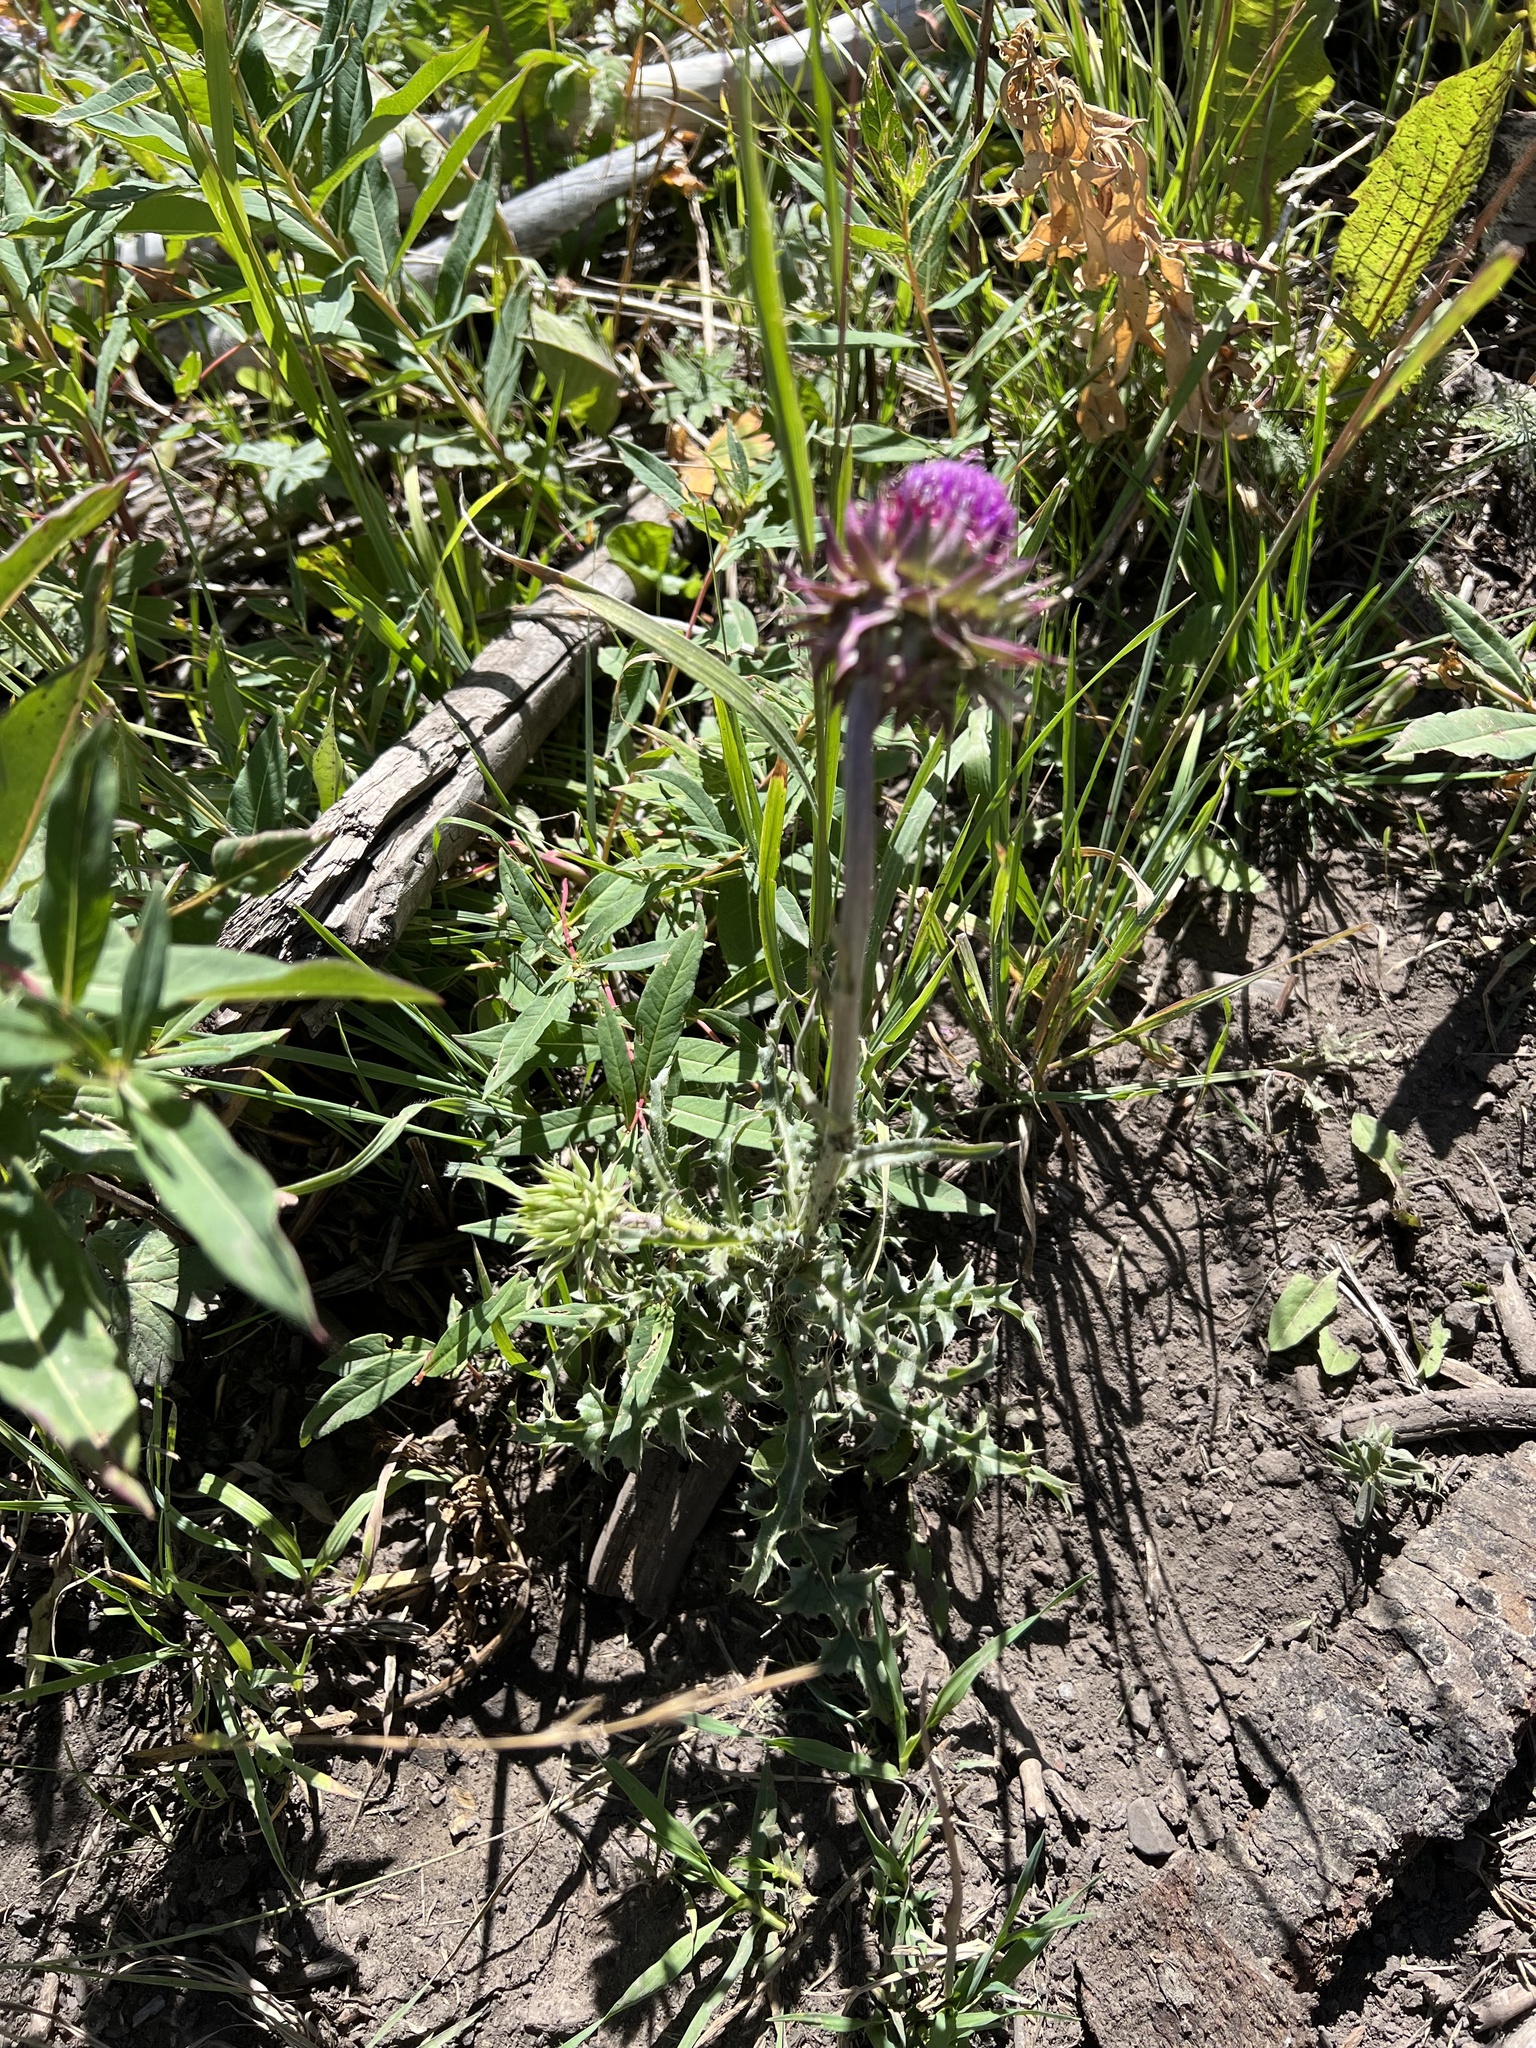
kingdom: Plantae
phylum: Tracheophyta
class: Magnoliopsida
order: Asterales
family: Asteraceae
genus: Carduus
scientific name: Carduus nutans
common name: Musk thistle
